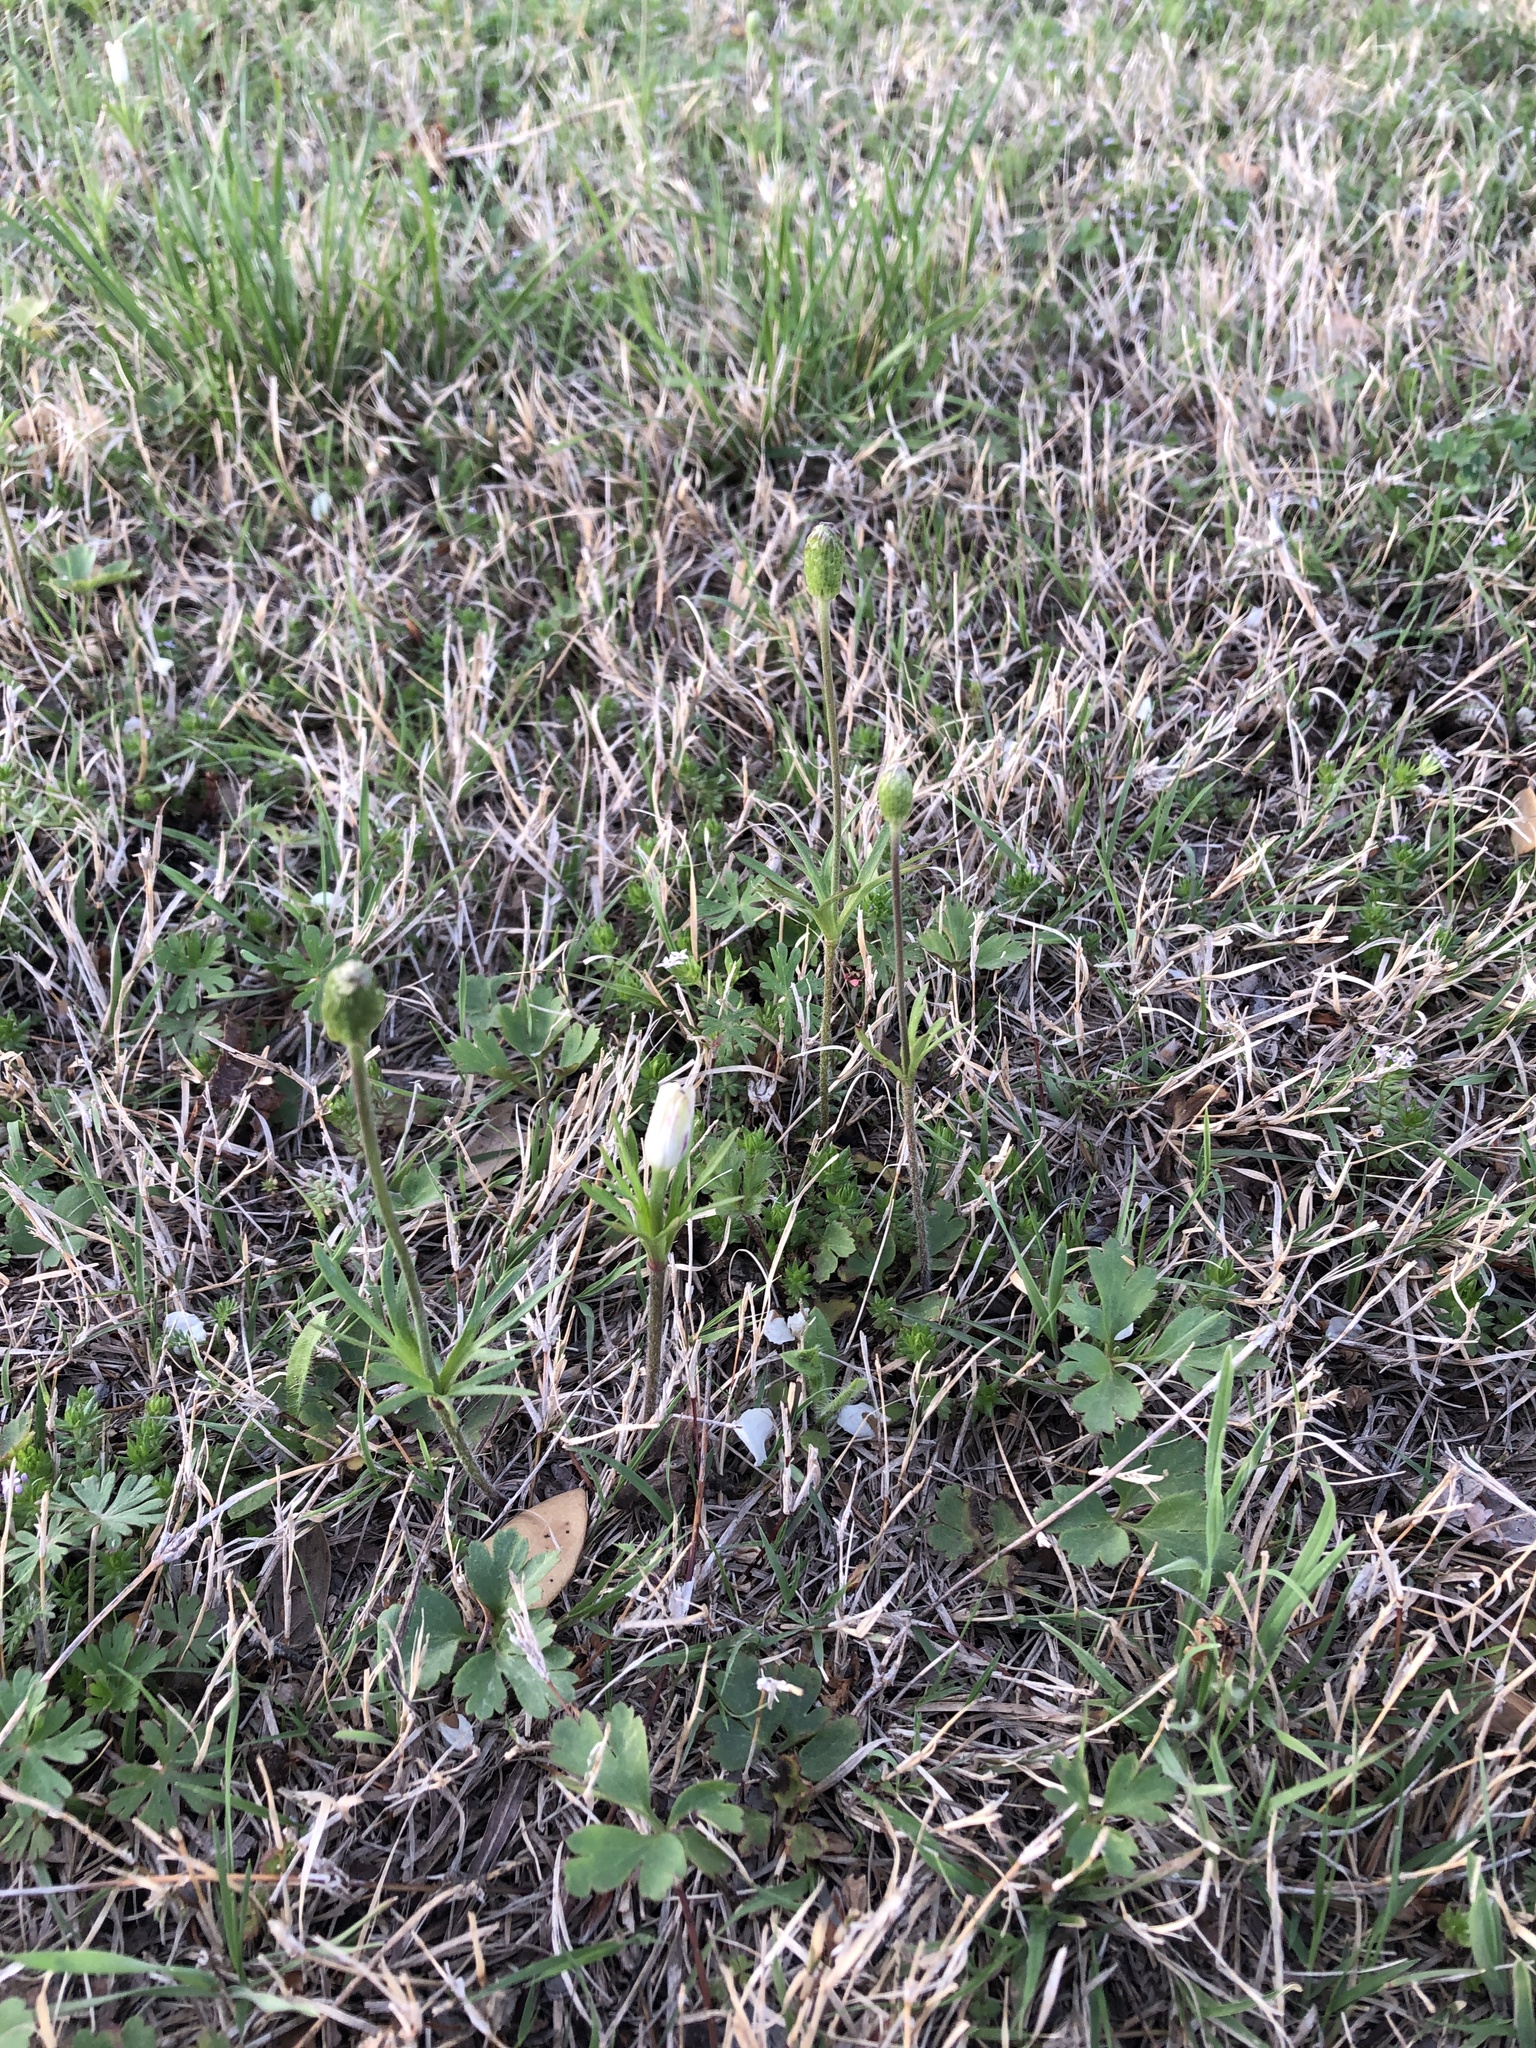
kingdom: Plantae
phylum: Tracheophyta
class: Magnoliopsida
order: Ranunculales
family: Ranunculaceae
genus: Anemone
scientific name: Anemone berlandieri
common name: Ten-petal anemone
